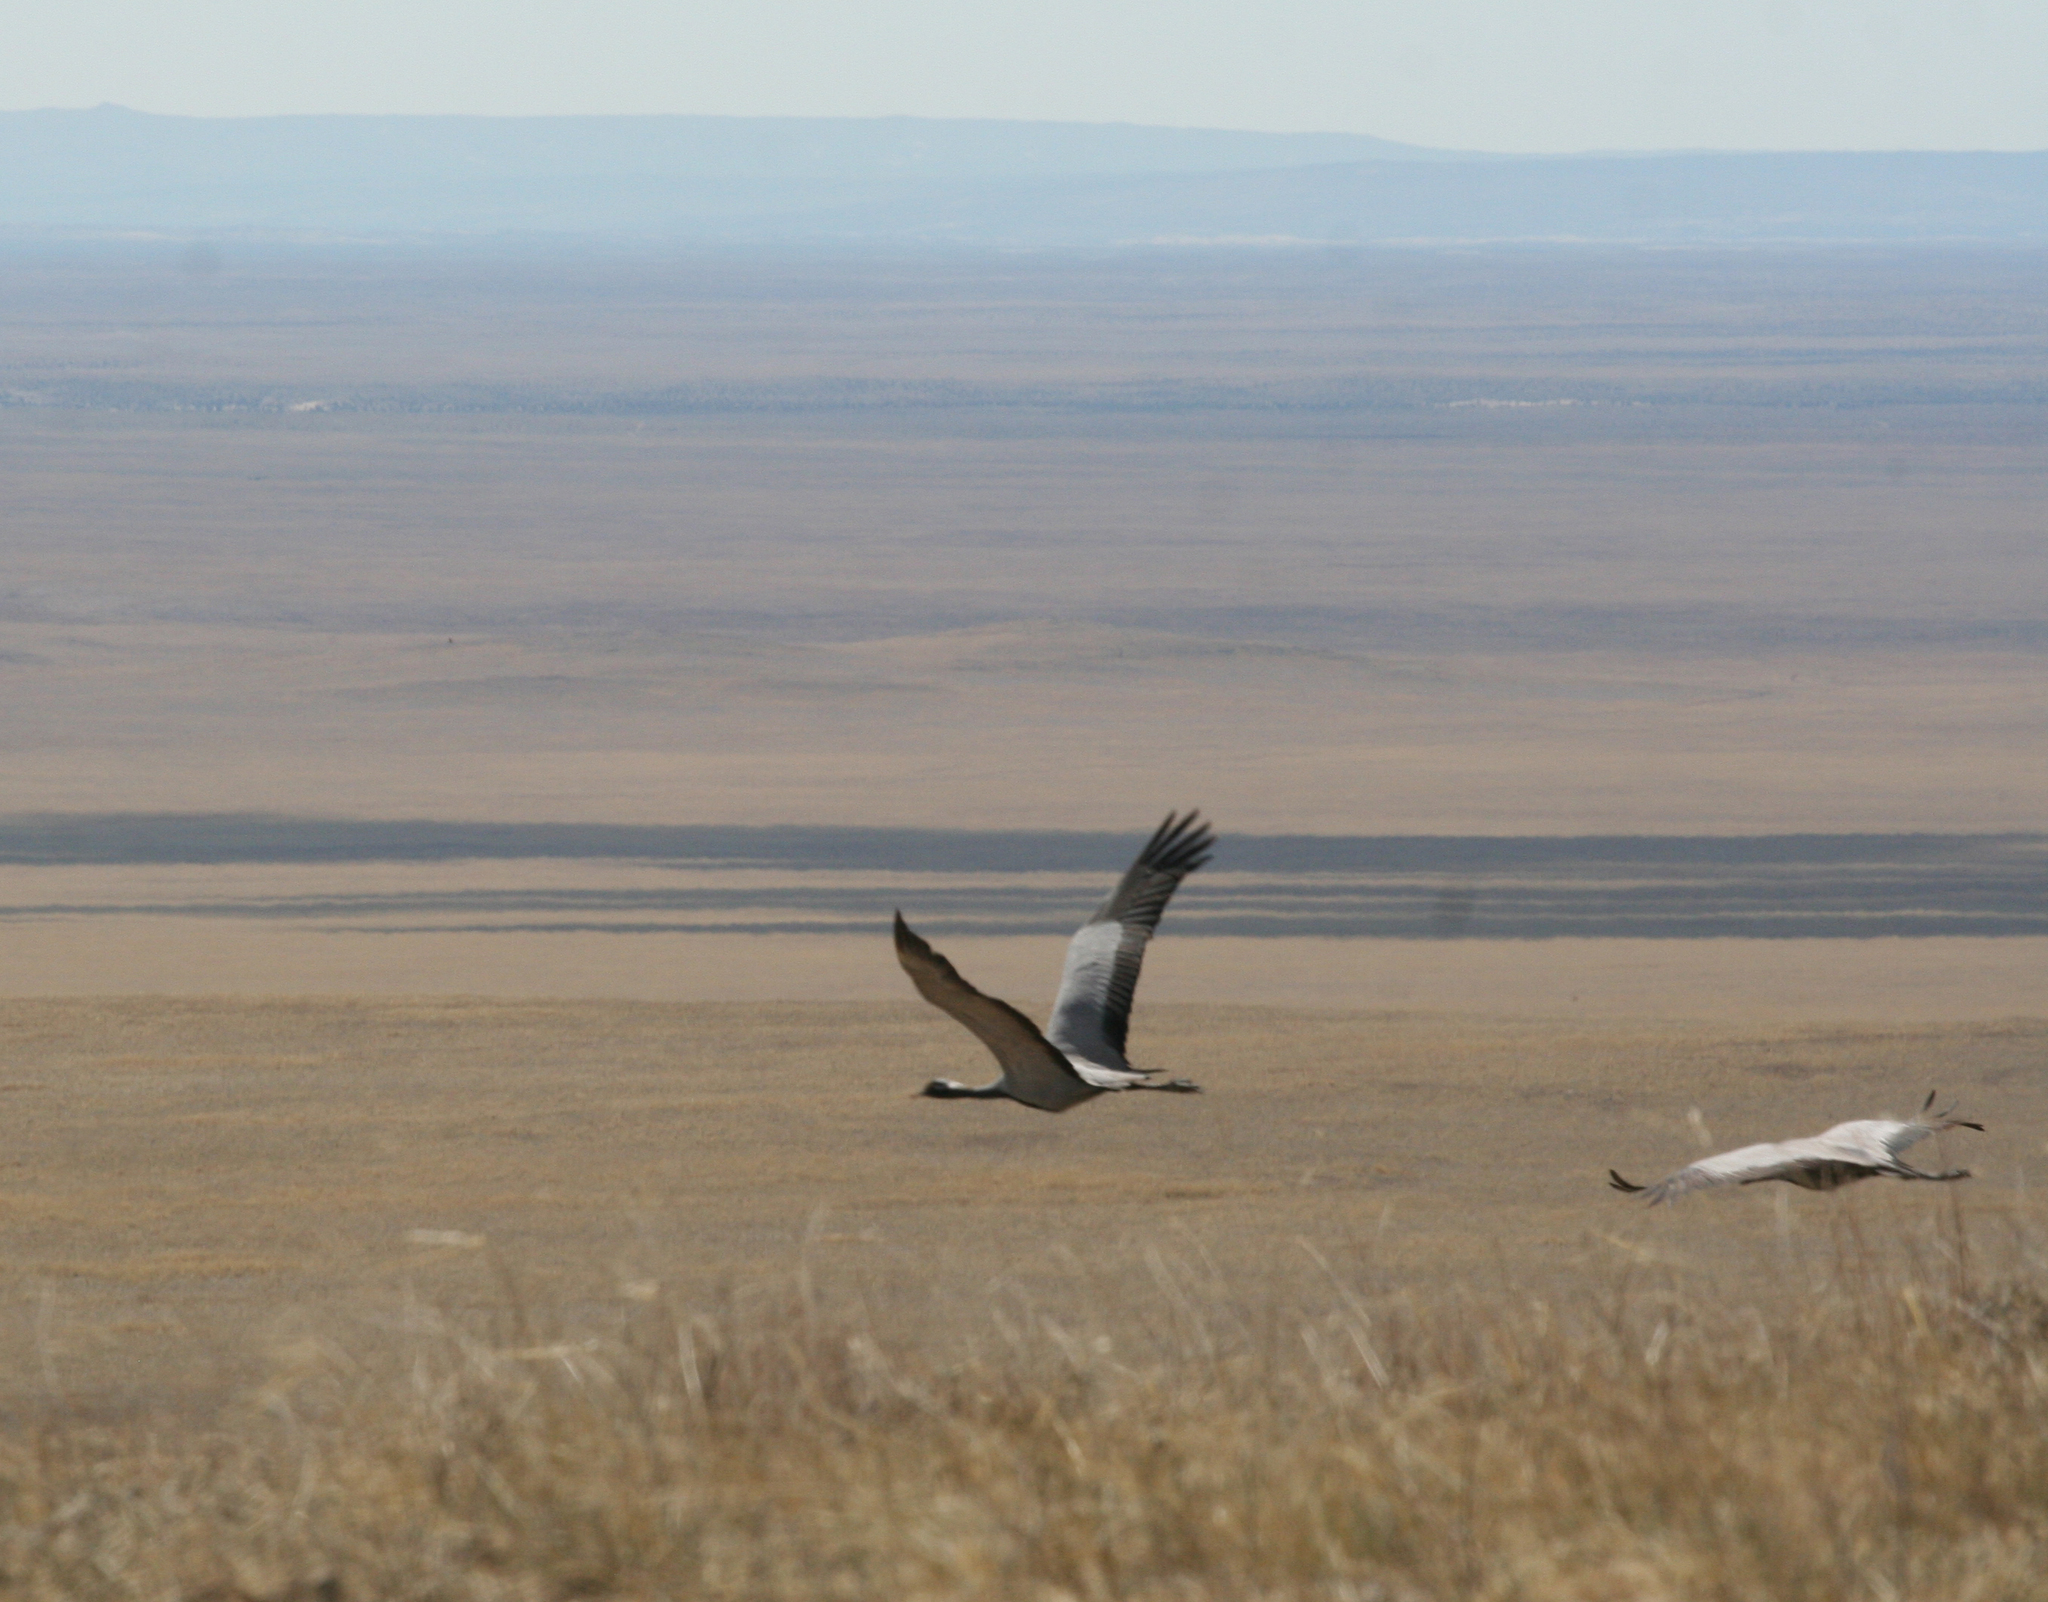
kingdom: Animalia
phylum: Chordata
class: Aves
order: Gruiformes
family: Gruidae
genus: Anthropoides
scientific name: Anthropoides virgo
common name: Demoiselle crane
